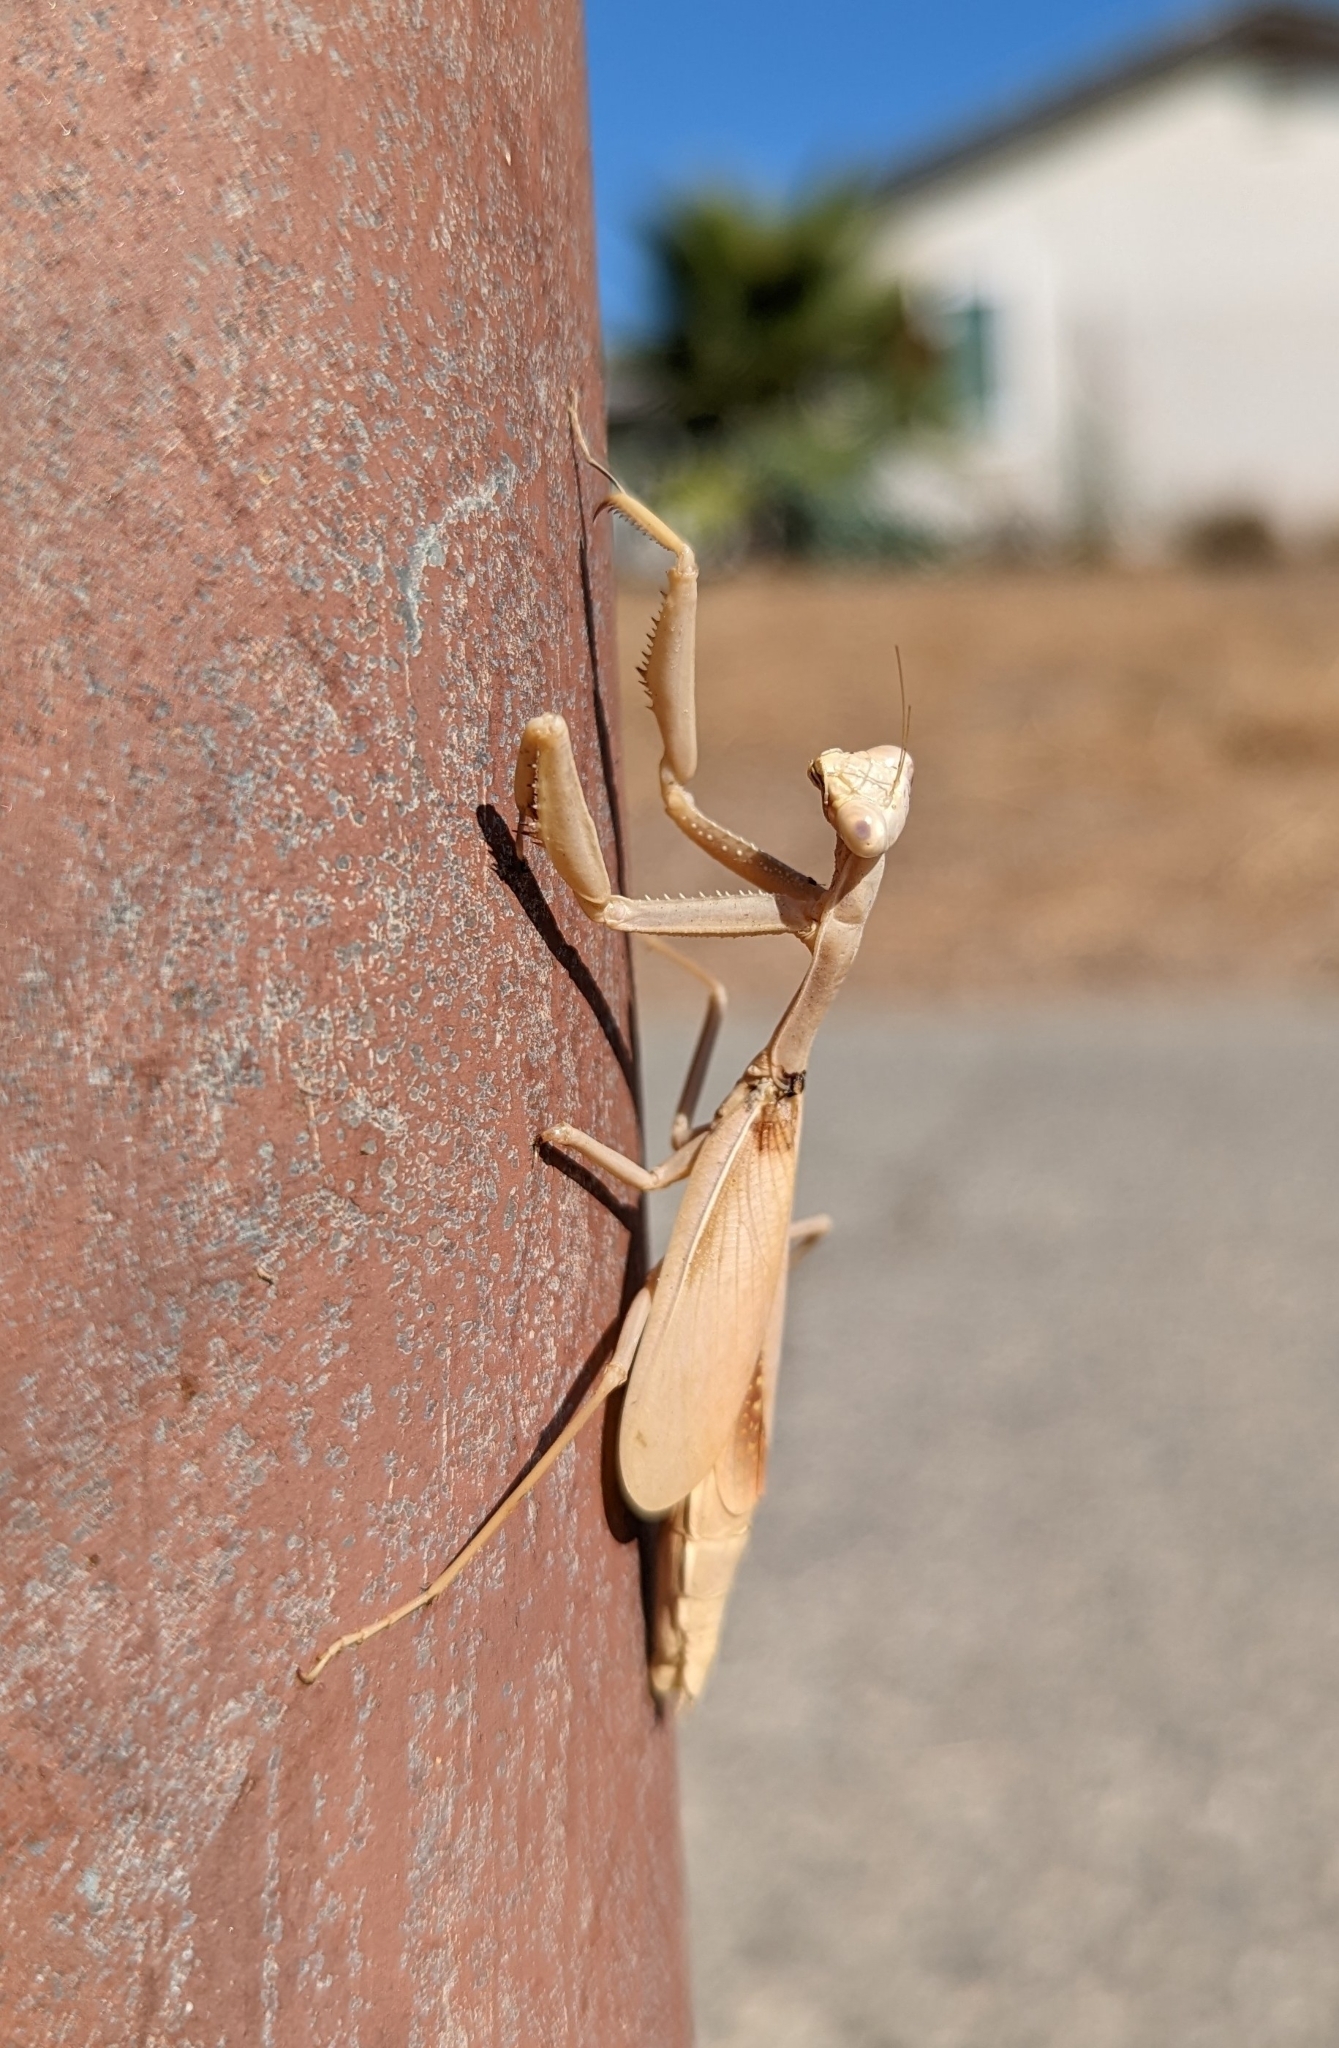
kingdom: Animalia
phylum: Arthropoda
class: Insecta
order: Mantodea
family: Eremiaphilidae
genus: Iris
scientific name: Iris oratoria
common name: Mediterranean mantis
